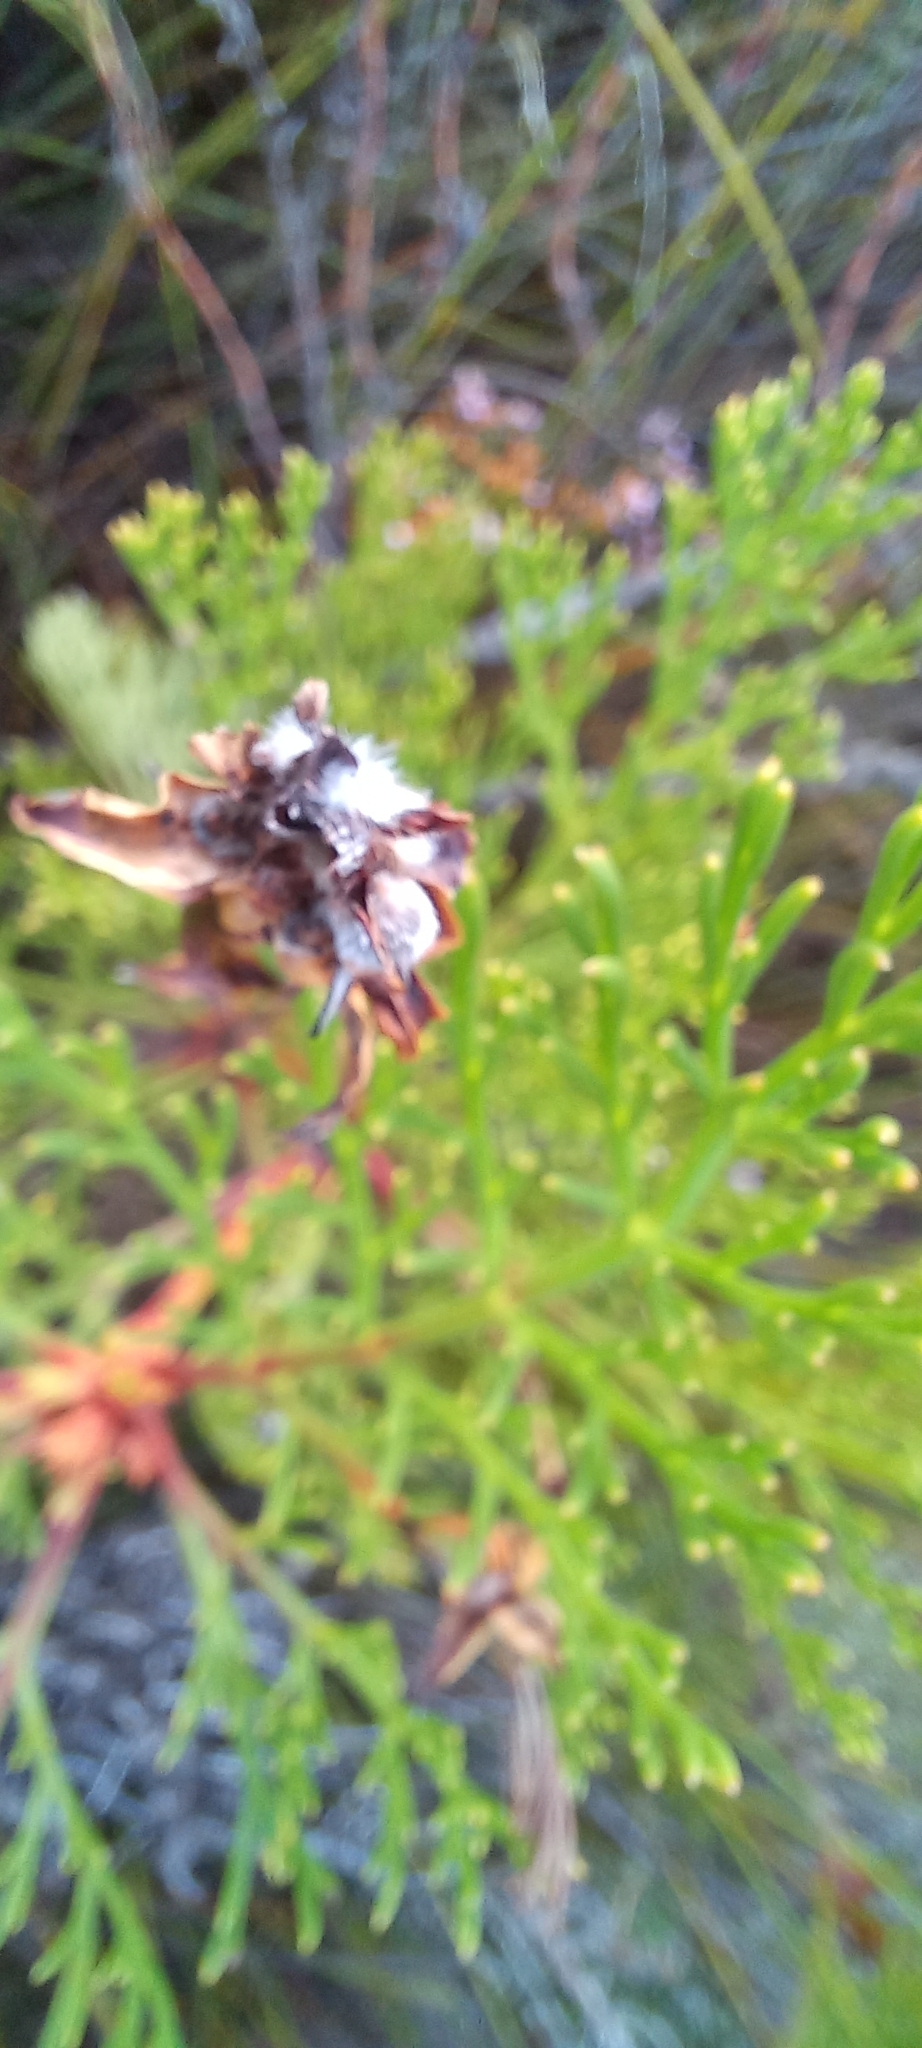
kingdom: Plantae
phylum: Tracheophyta
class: Magnoliopsida
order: Proteales
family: Proteaceae
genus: Serruria
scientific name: Serruria elongata
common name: Long-stalk spiderhead
